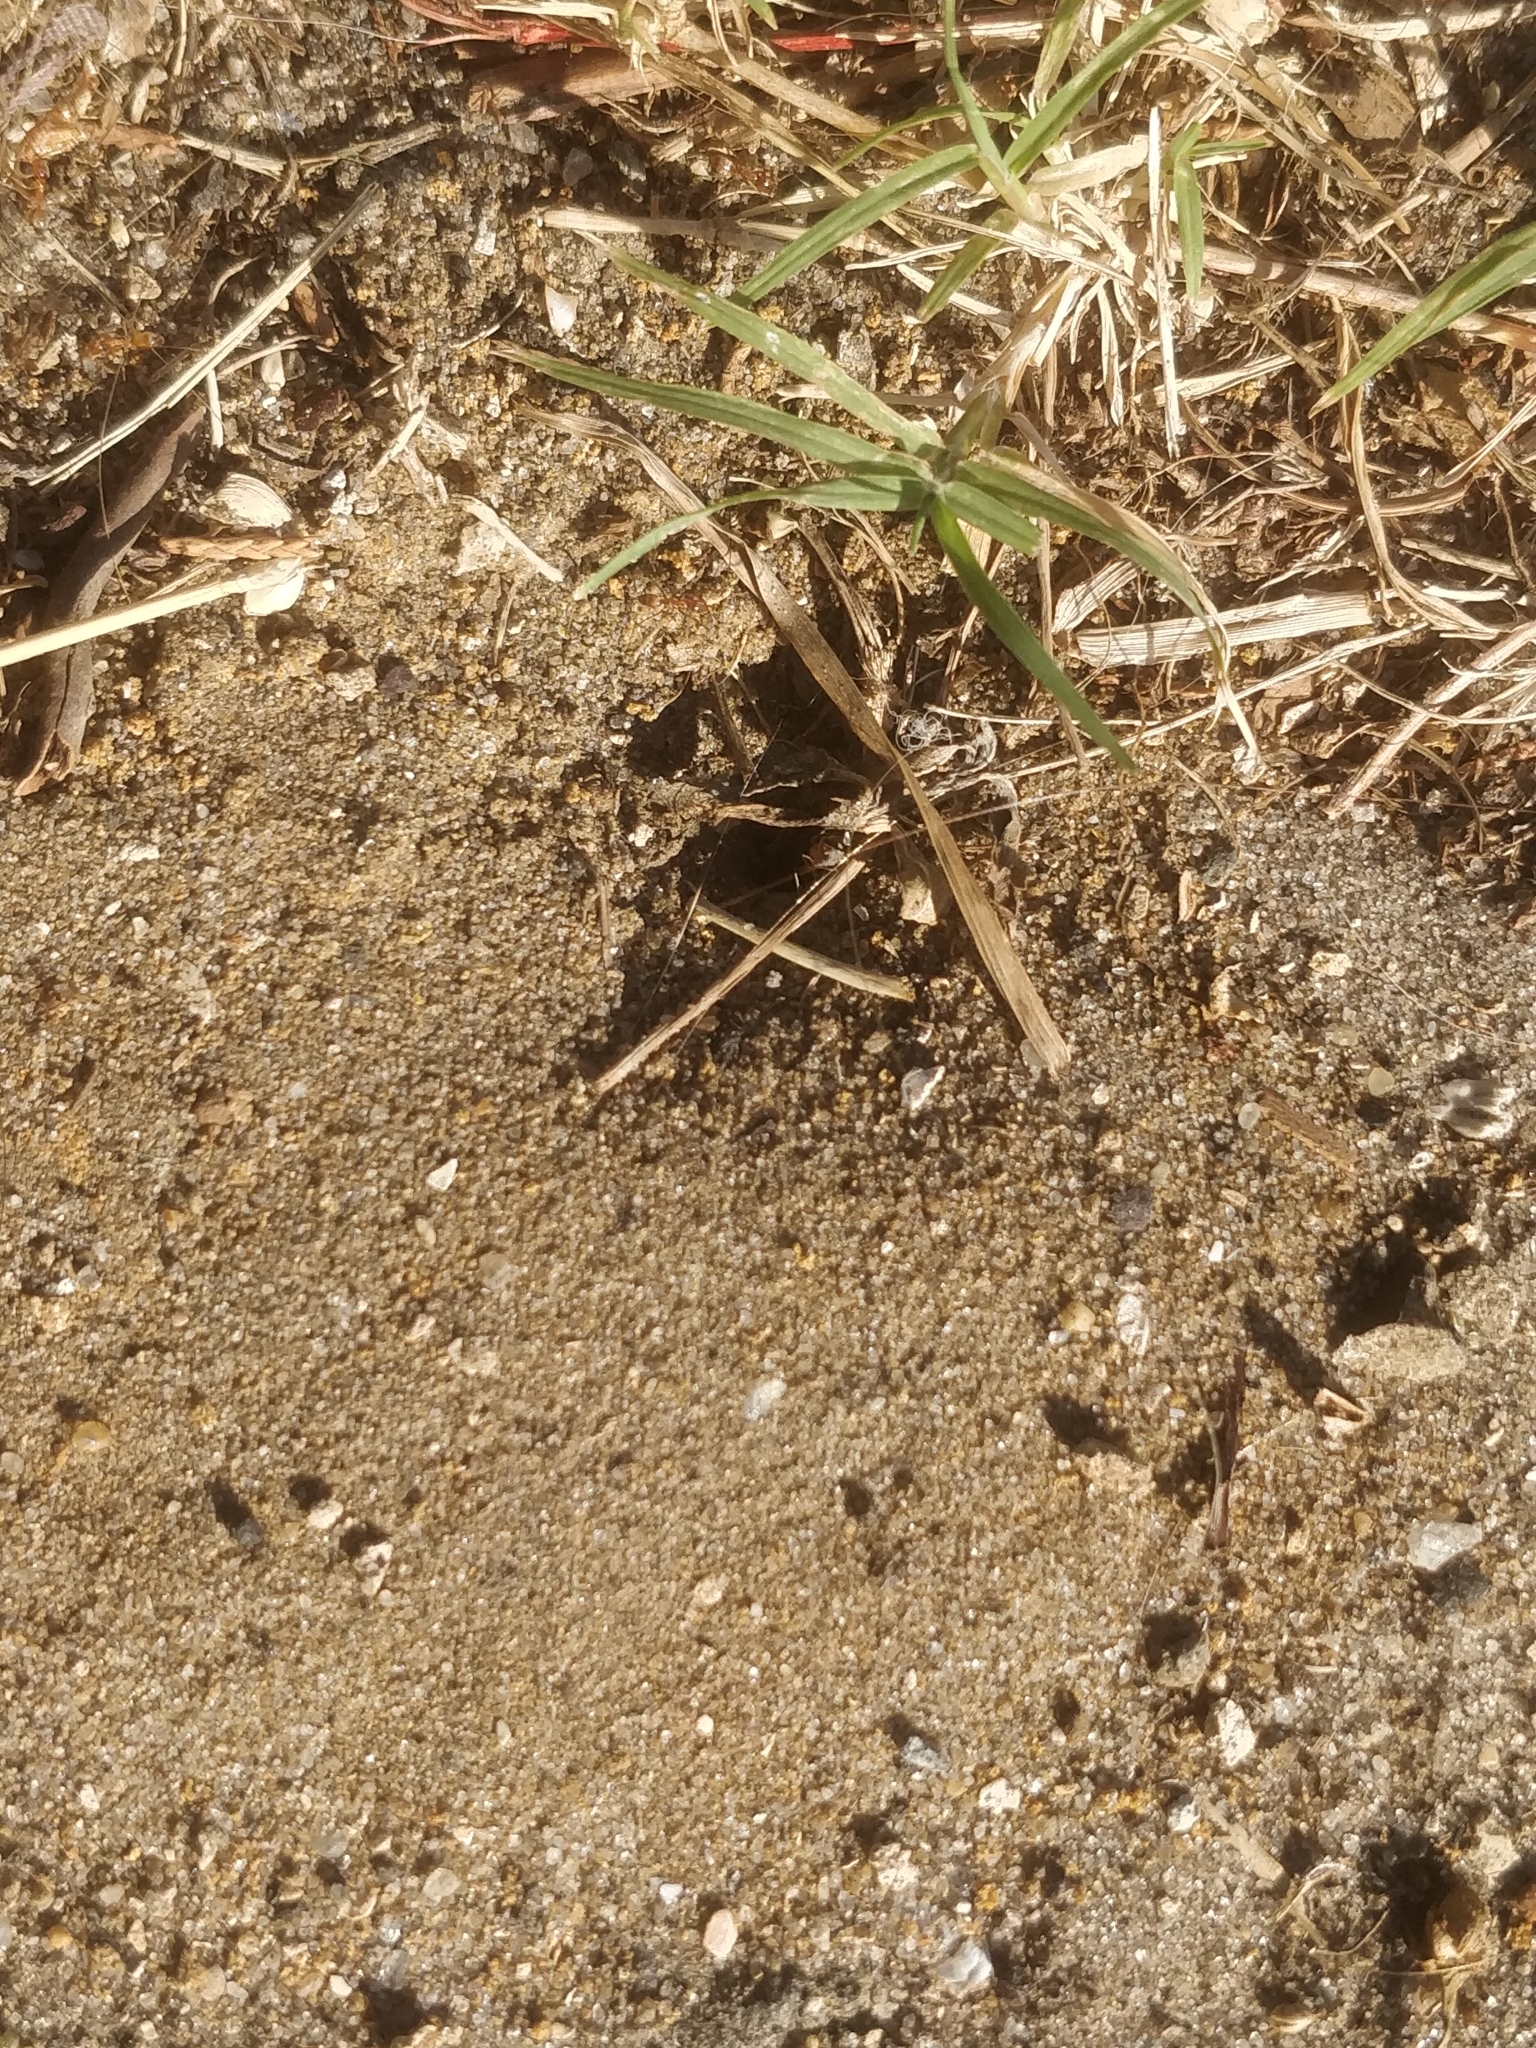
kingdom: Animalia
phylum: Arthropoda
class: Insecta
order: Hymenoptera
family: Formicidae
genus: Dorymyrmex
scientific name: Dorymyrmex bureni
